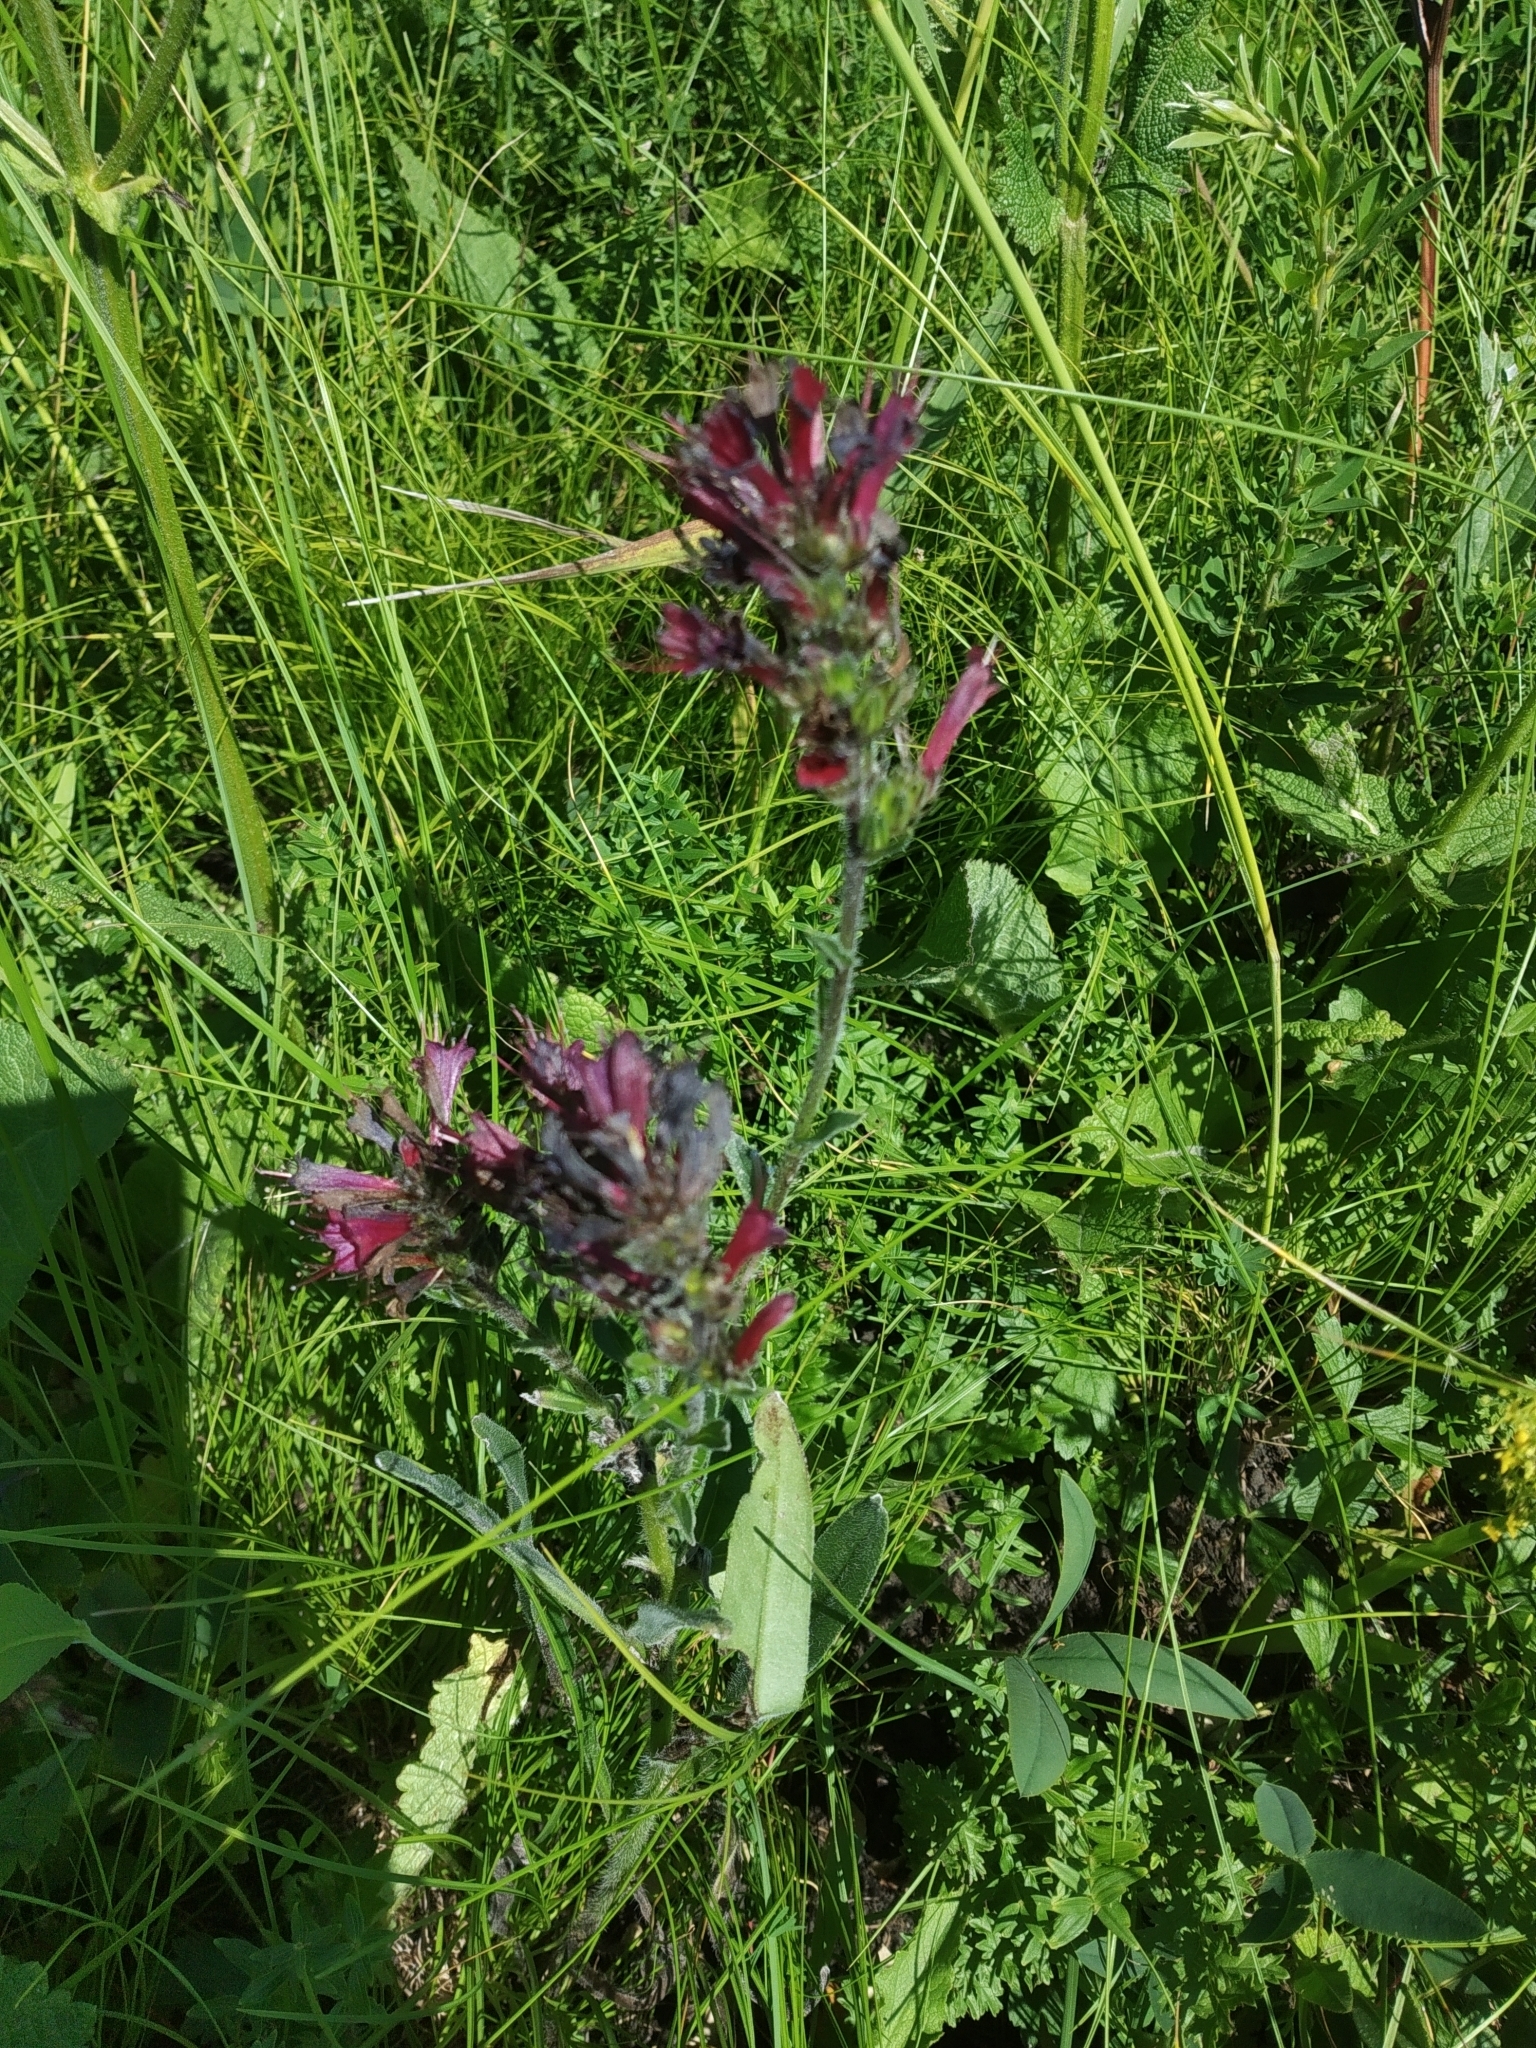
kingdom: Plantae
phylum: Tracheophyta
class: Magnoliopsida
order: Boraginales
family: Boraginaceae
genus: Pontechium
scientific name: Pontechium maculatum
